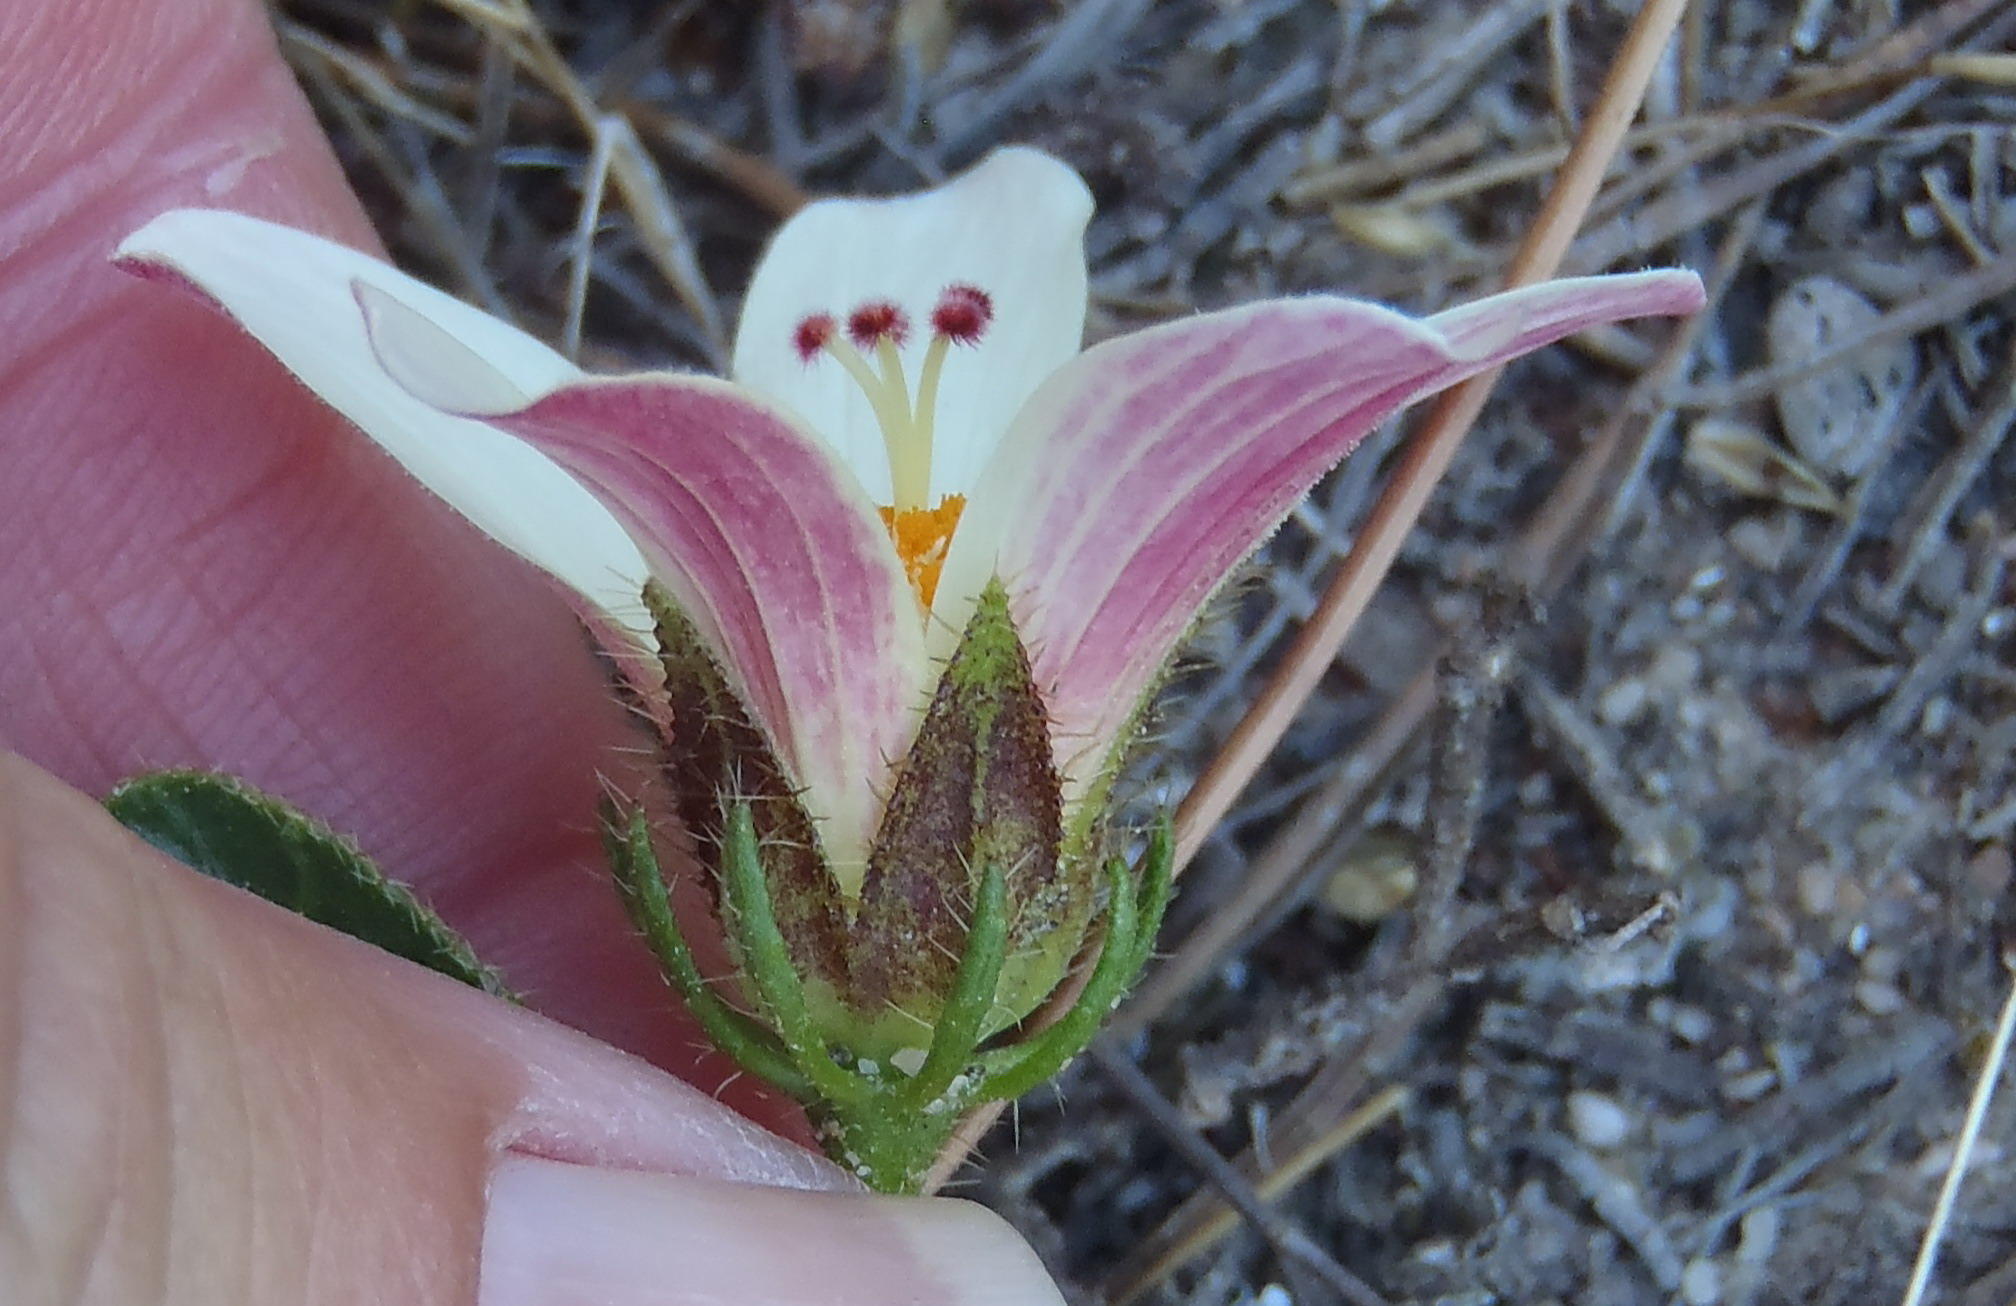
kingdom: Plantae
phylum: Tracheophyta
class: Magnoliopsida
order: Malvales
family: Malvaceae
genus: Hibiscus
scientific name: Hibiscus aethiopicus
